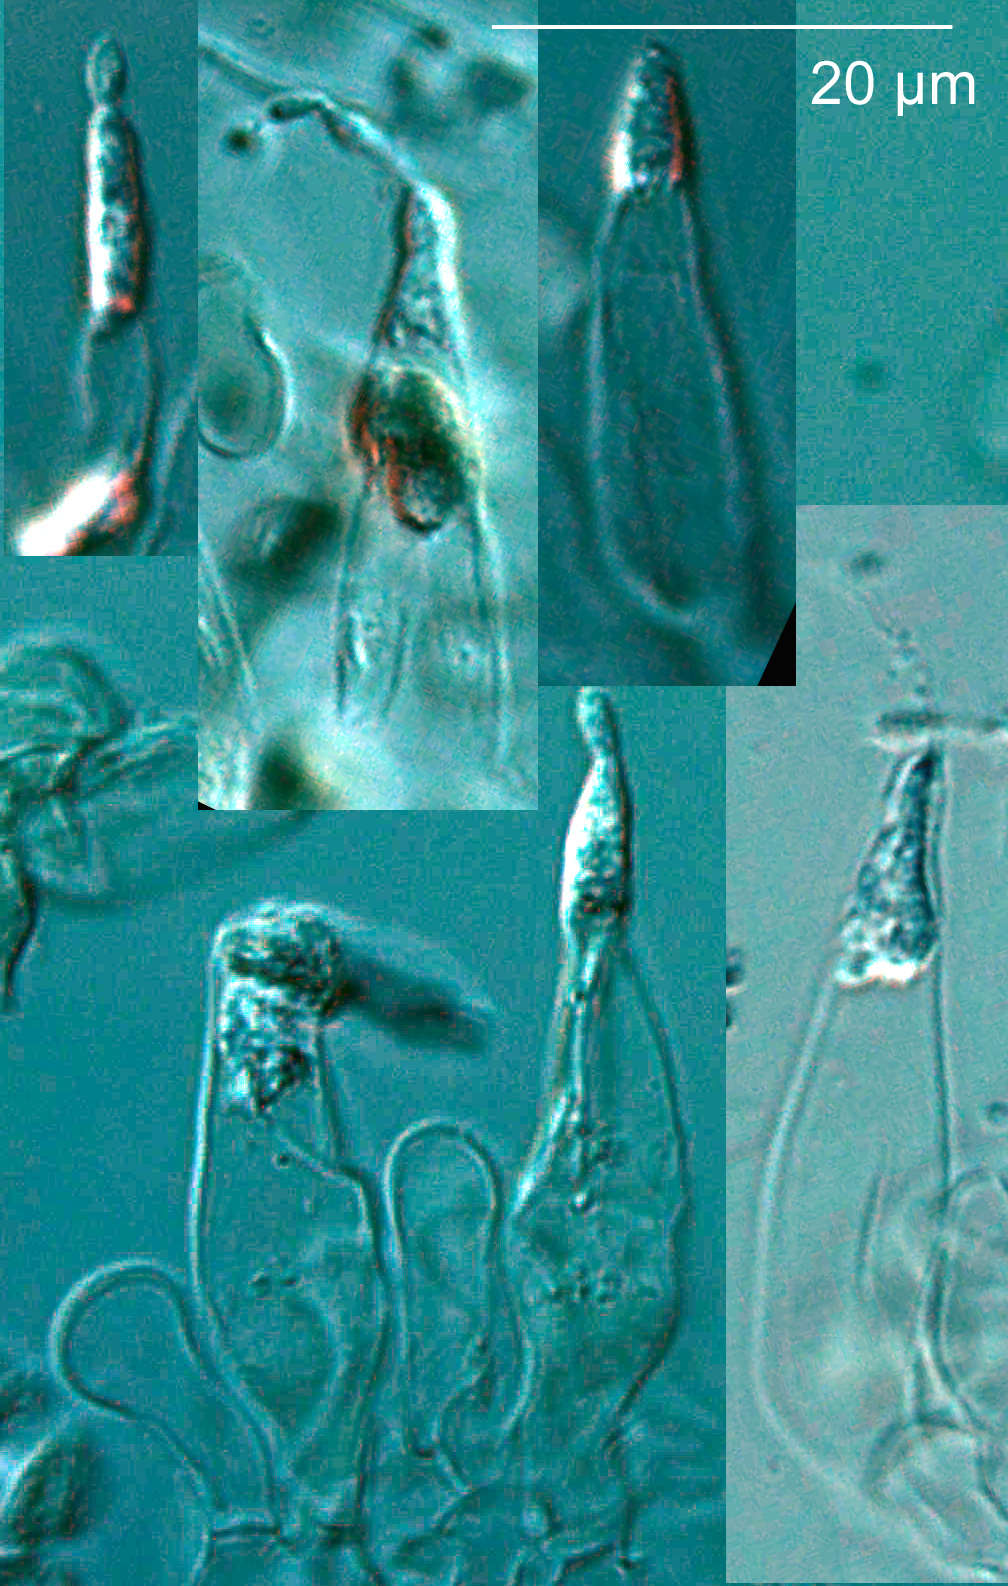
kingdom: Fungi
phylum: Basidiomycota
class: Agaricomycetes
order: Russulales
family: Russulaceae
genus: Lactarius
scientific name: Lactarius umerensis
